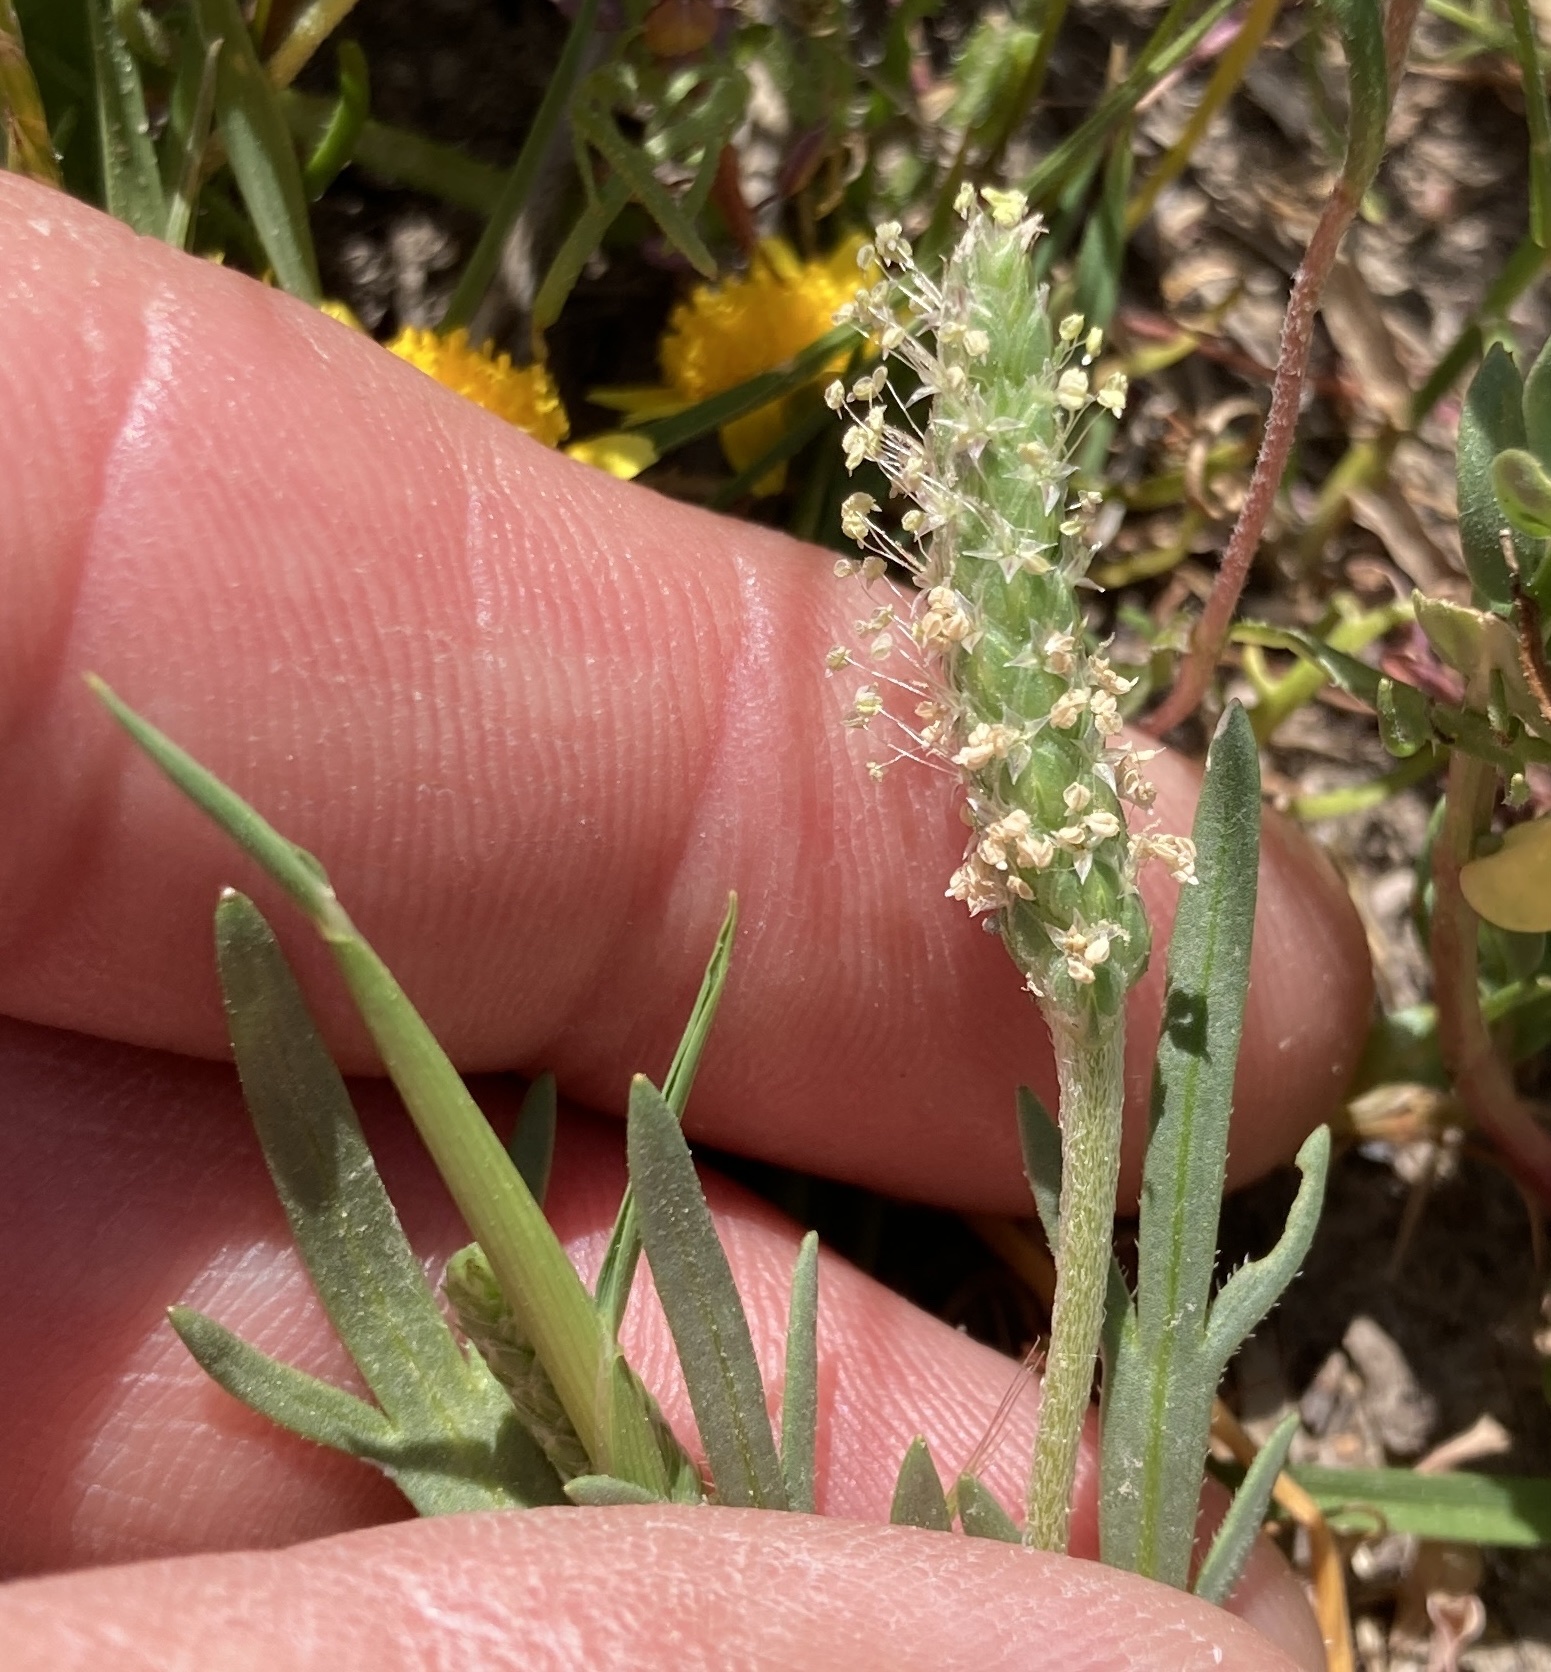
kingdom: Plantae
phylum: Tracheophyta
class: Magnoliopsida
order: Lamiales
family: Plantaginaceae
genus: Plantago
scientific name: Plantago coronopus
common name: Buck's-horn plantain
